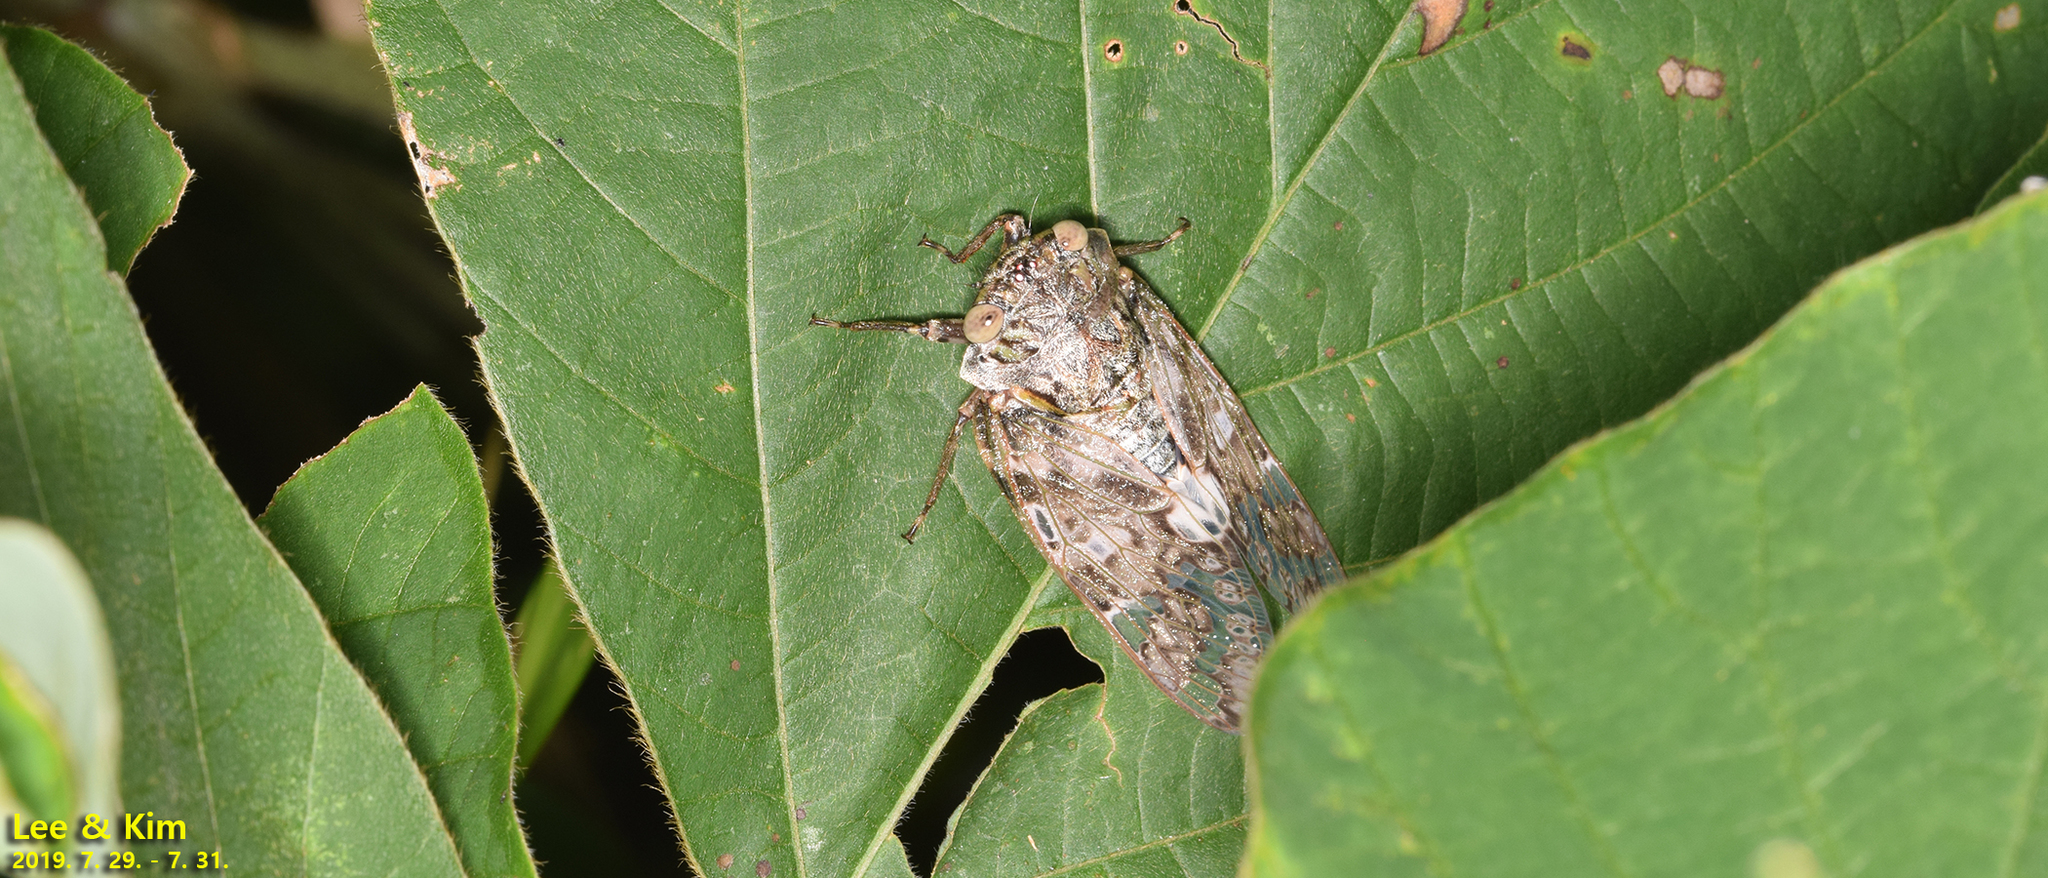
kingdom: Animalia
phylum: Arthropoda
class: Insecta
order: Hemiptera
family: Cicadidae
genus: Platypleura
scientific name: Platypleura kaempferi
